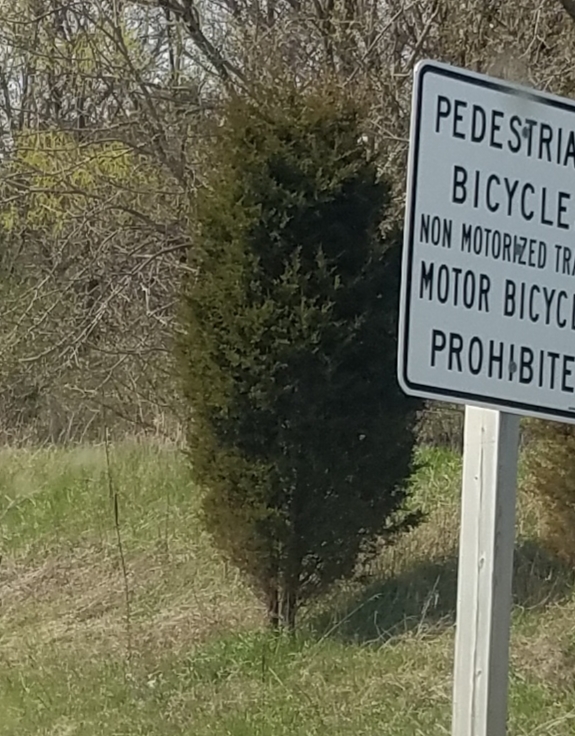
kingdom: Plantae
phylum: Tracheophyta
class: Pinopsida
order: Pinales
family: Cupressaceae
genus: Juniperus
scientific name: Juniperus virginiana
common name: Red juniper
